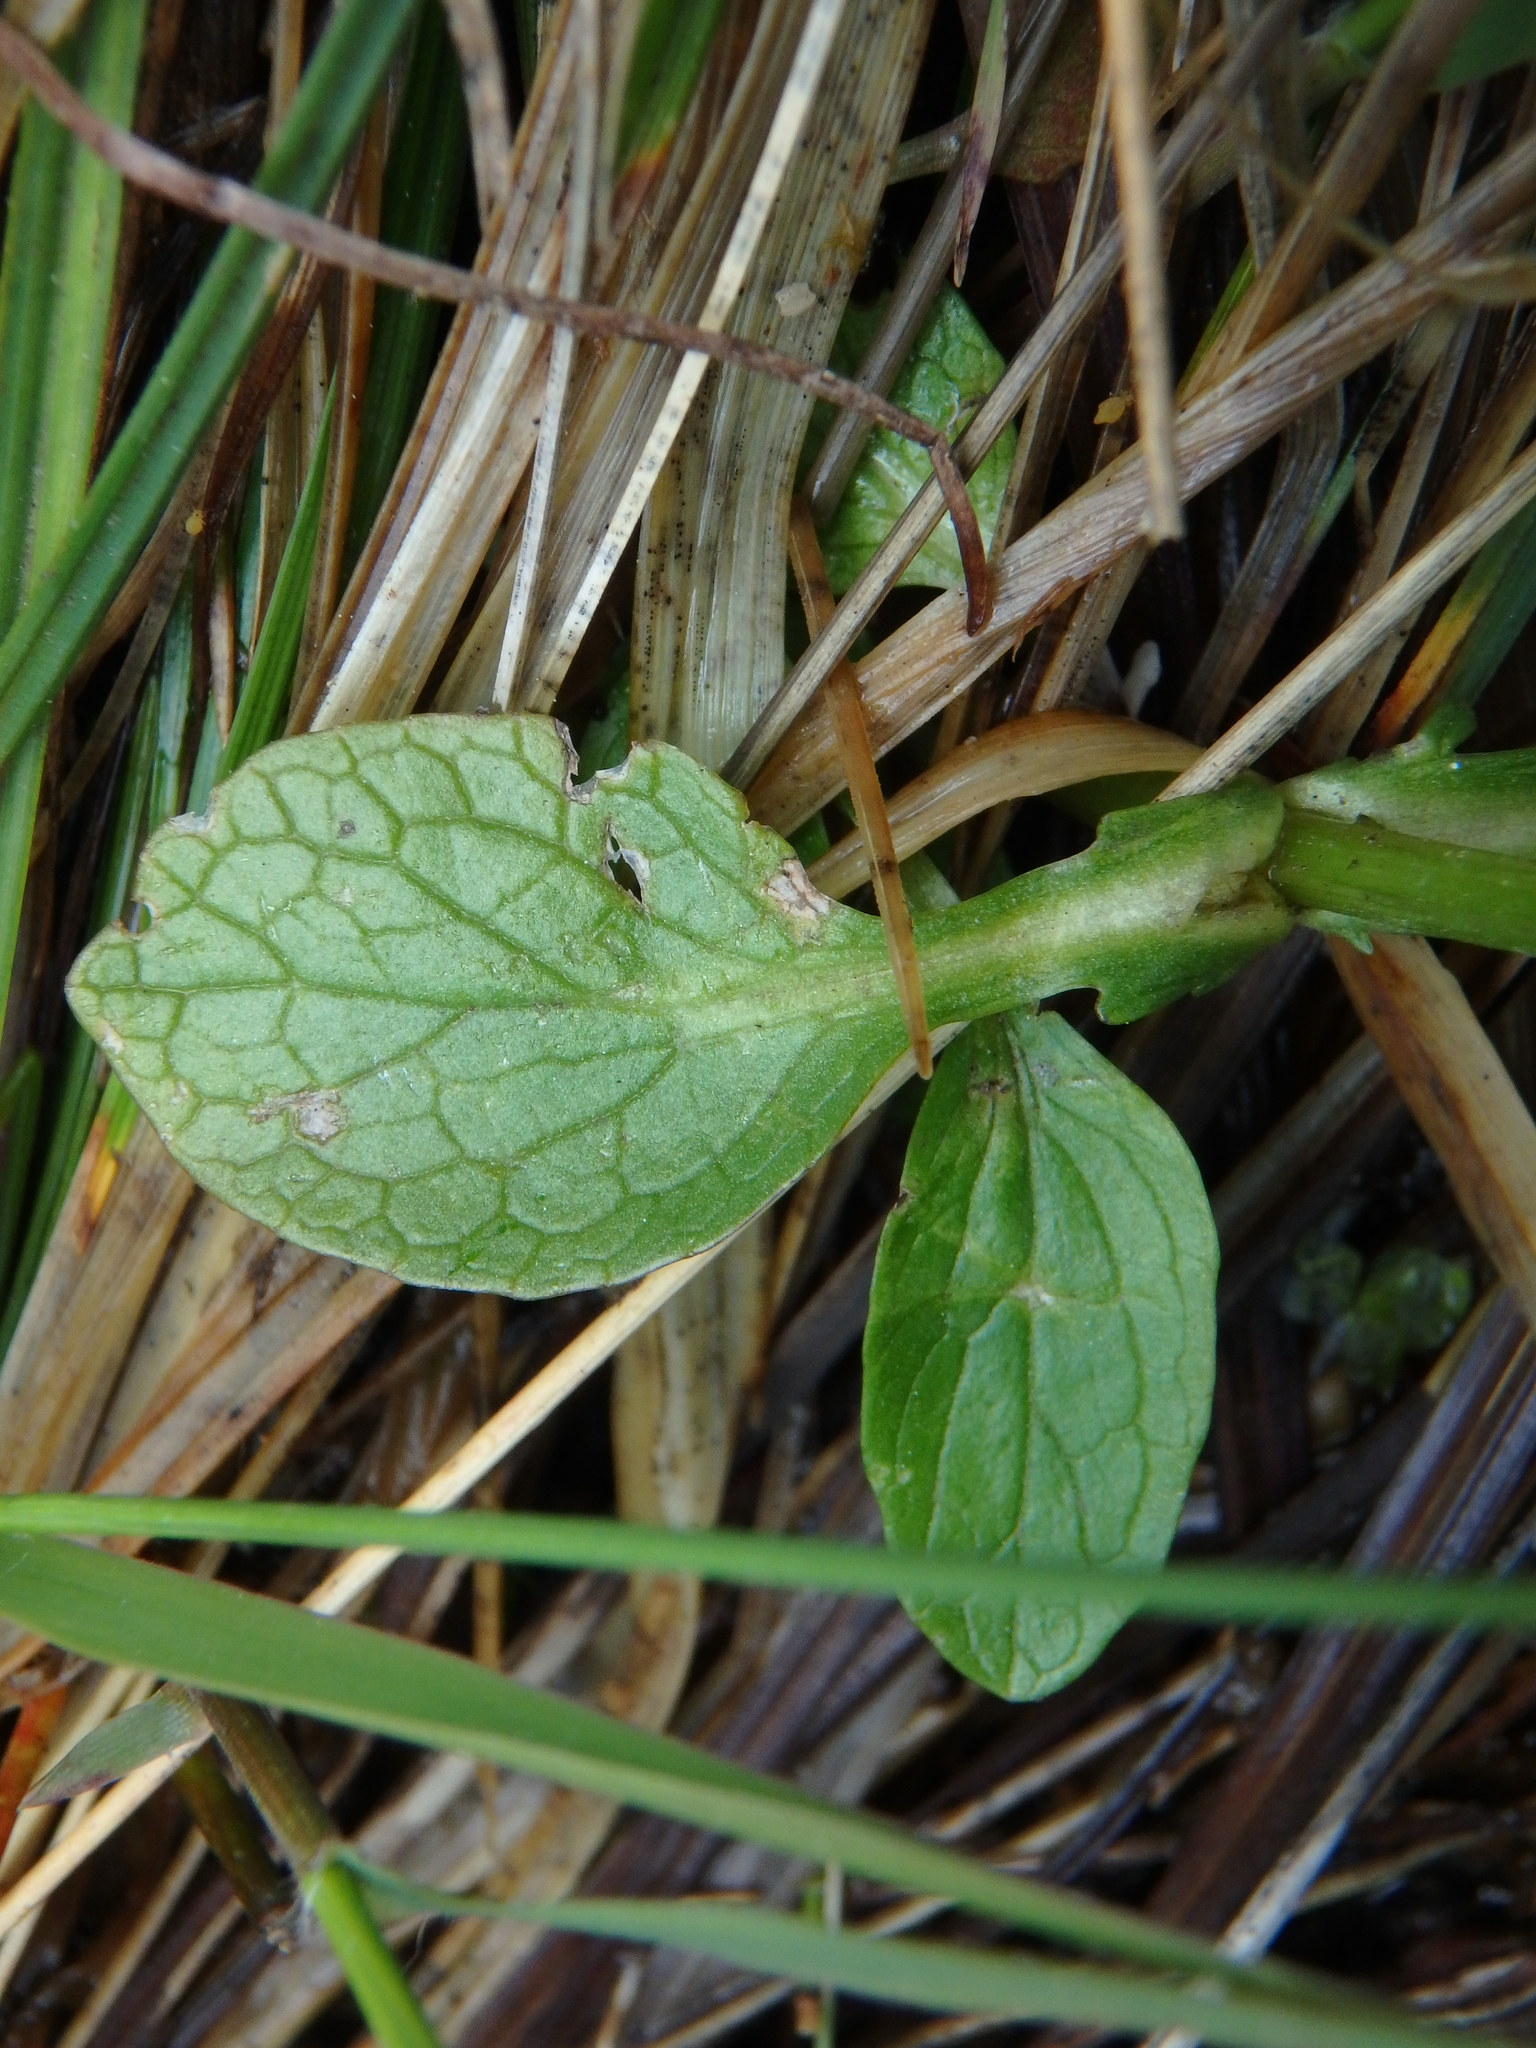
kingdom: Plantae
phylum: Tracheophyta
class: Magnoliopsida
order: Dipsacales
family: Caprifoliaceae
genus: Valeriana
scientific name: Valeriana dioica
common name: Marsh valerian
